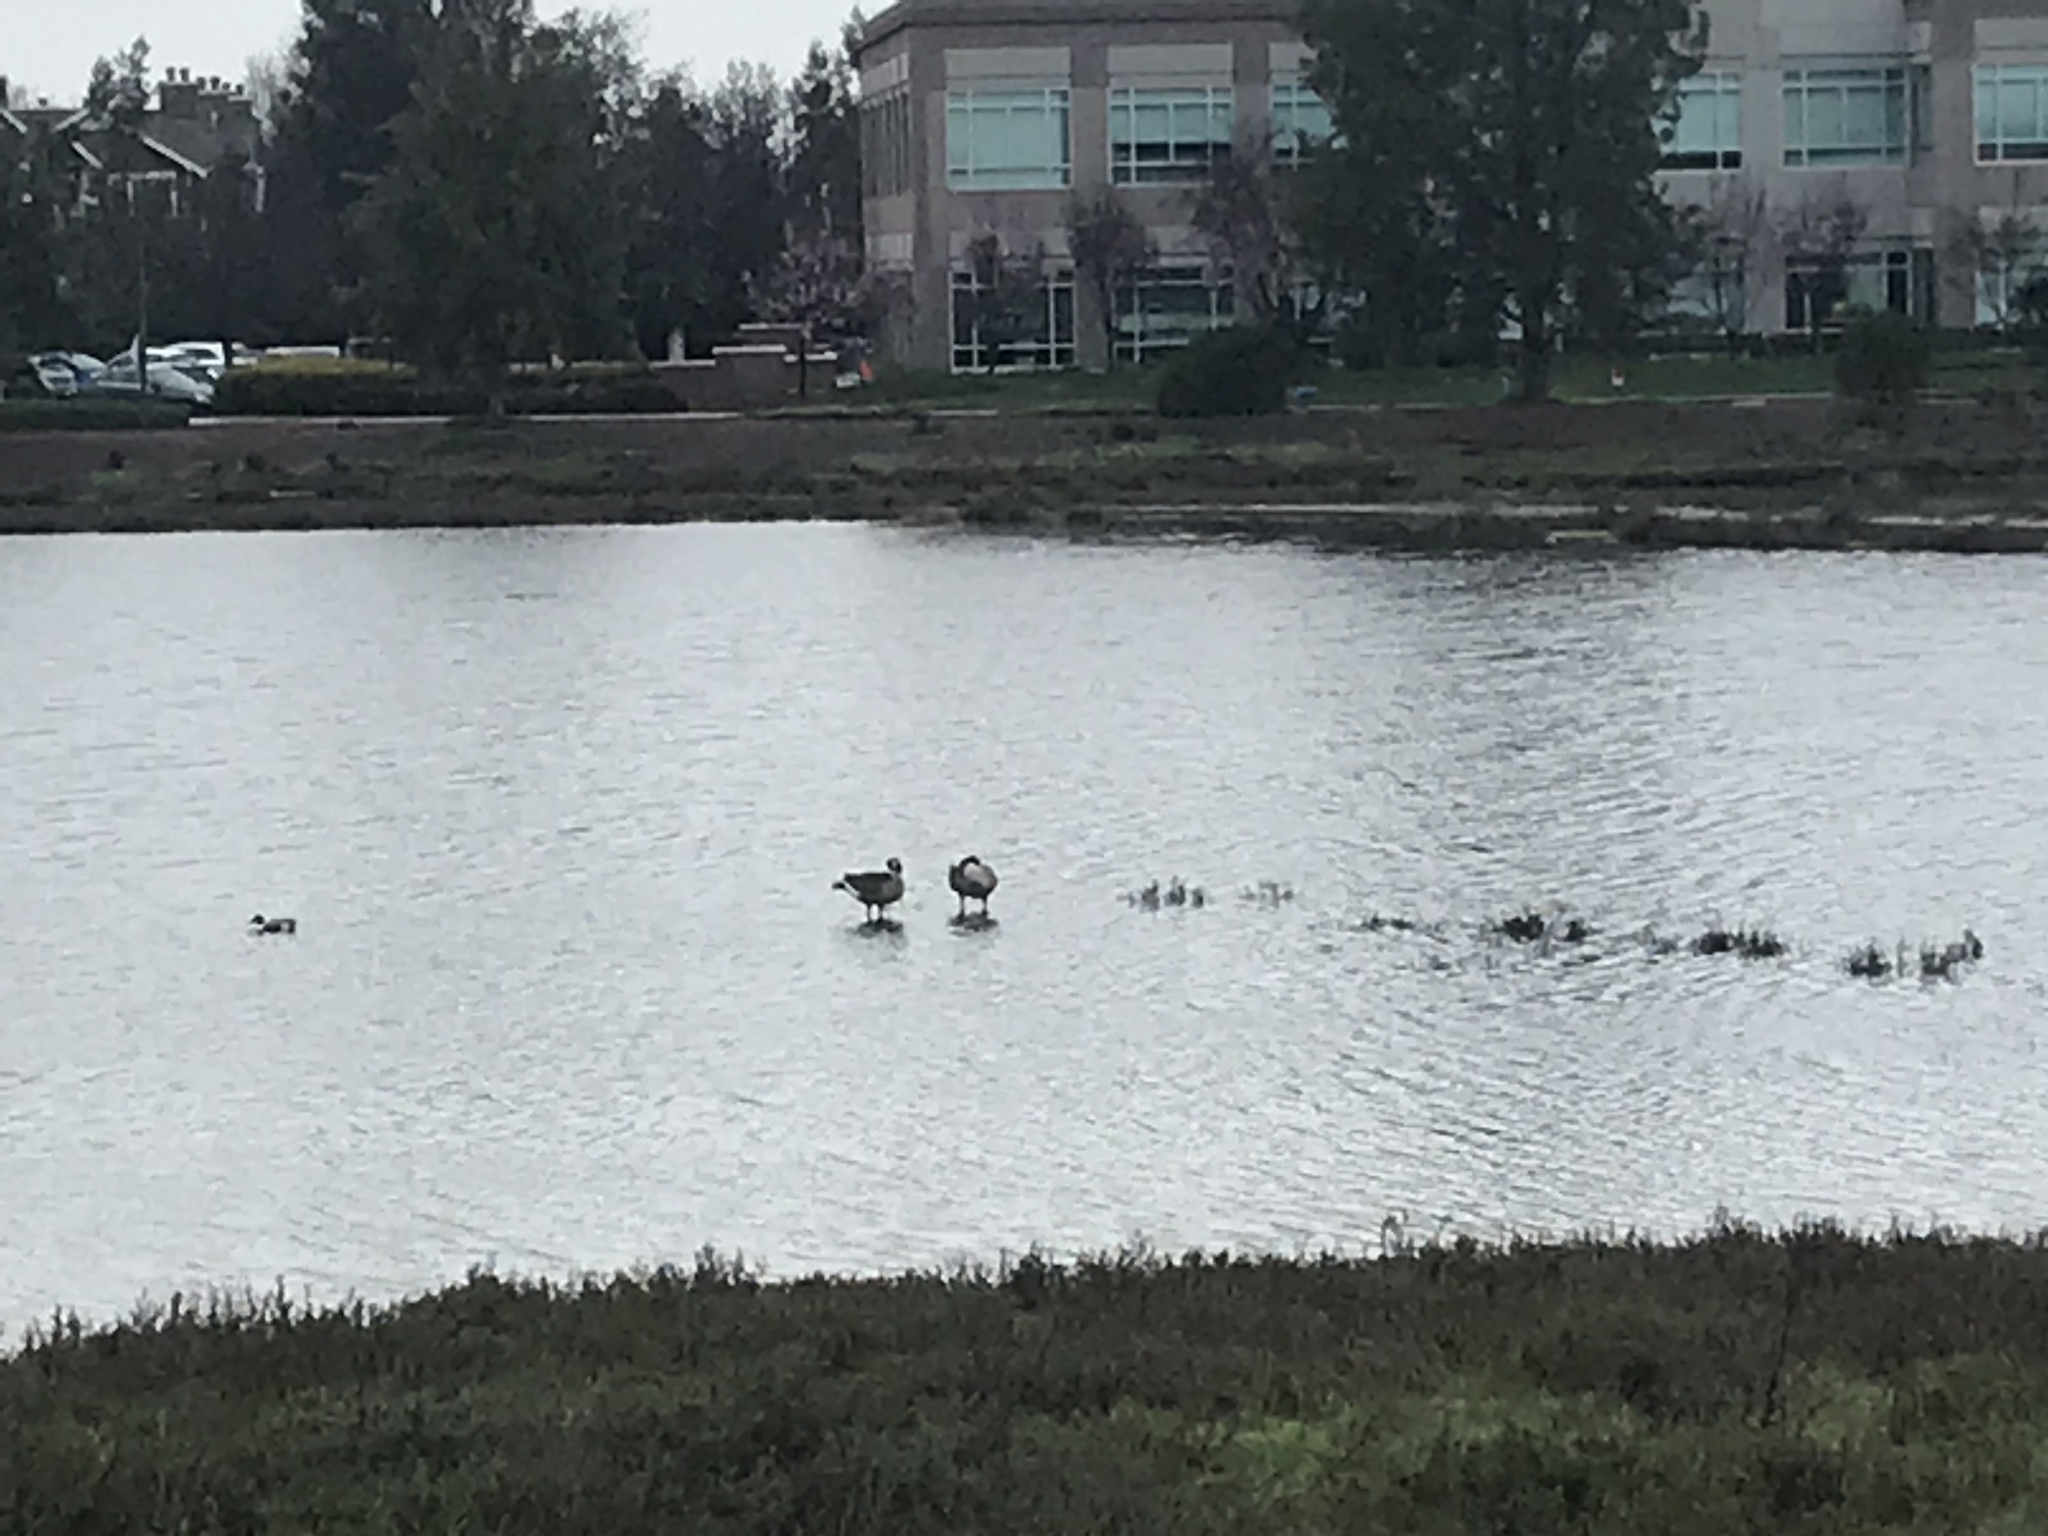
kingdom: Animalia
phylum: Chordata
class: Aves
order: Anseriformes
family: Anatidae
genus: Branta
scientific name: Branta canadensis
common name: Canada goose
